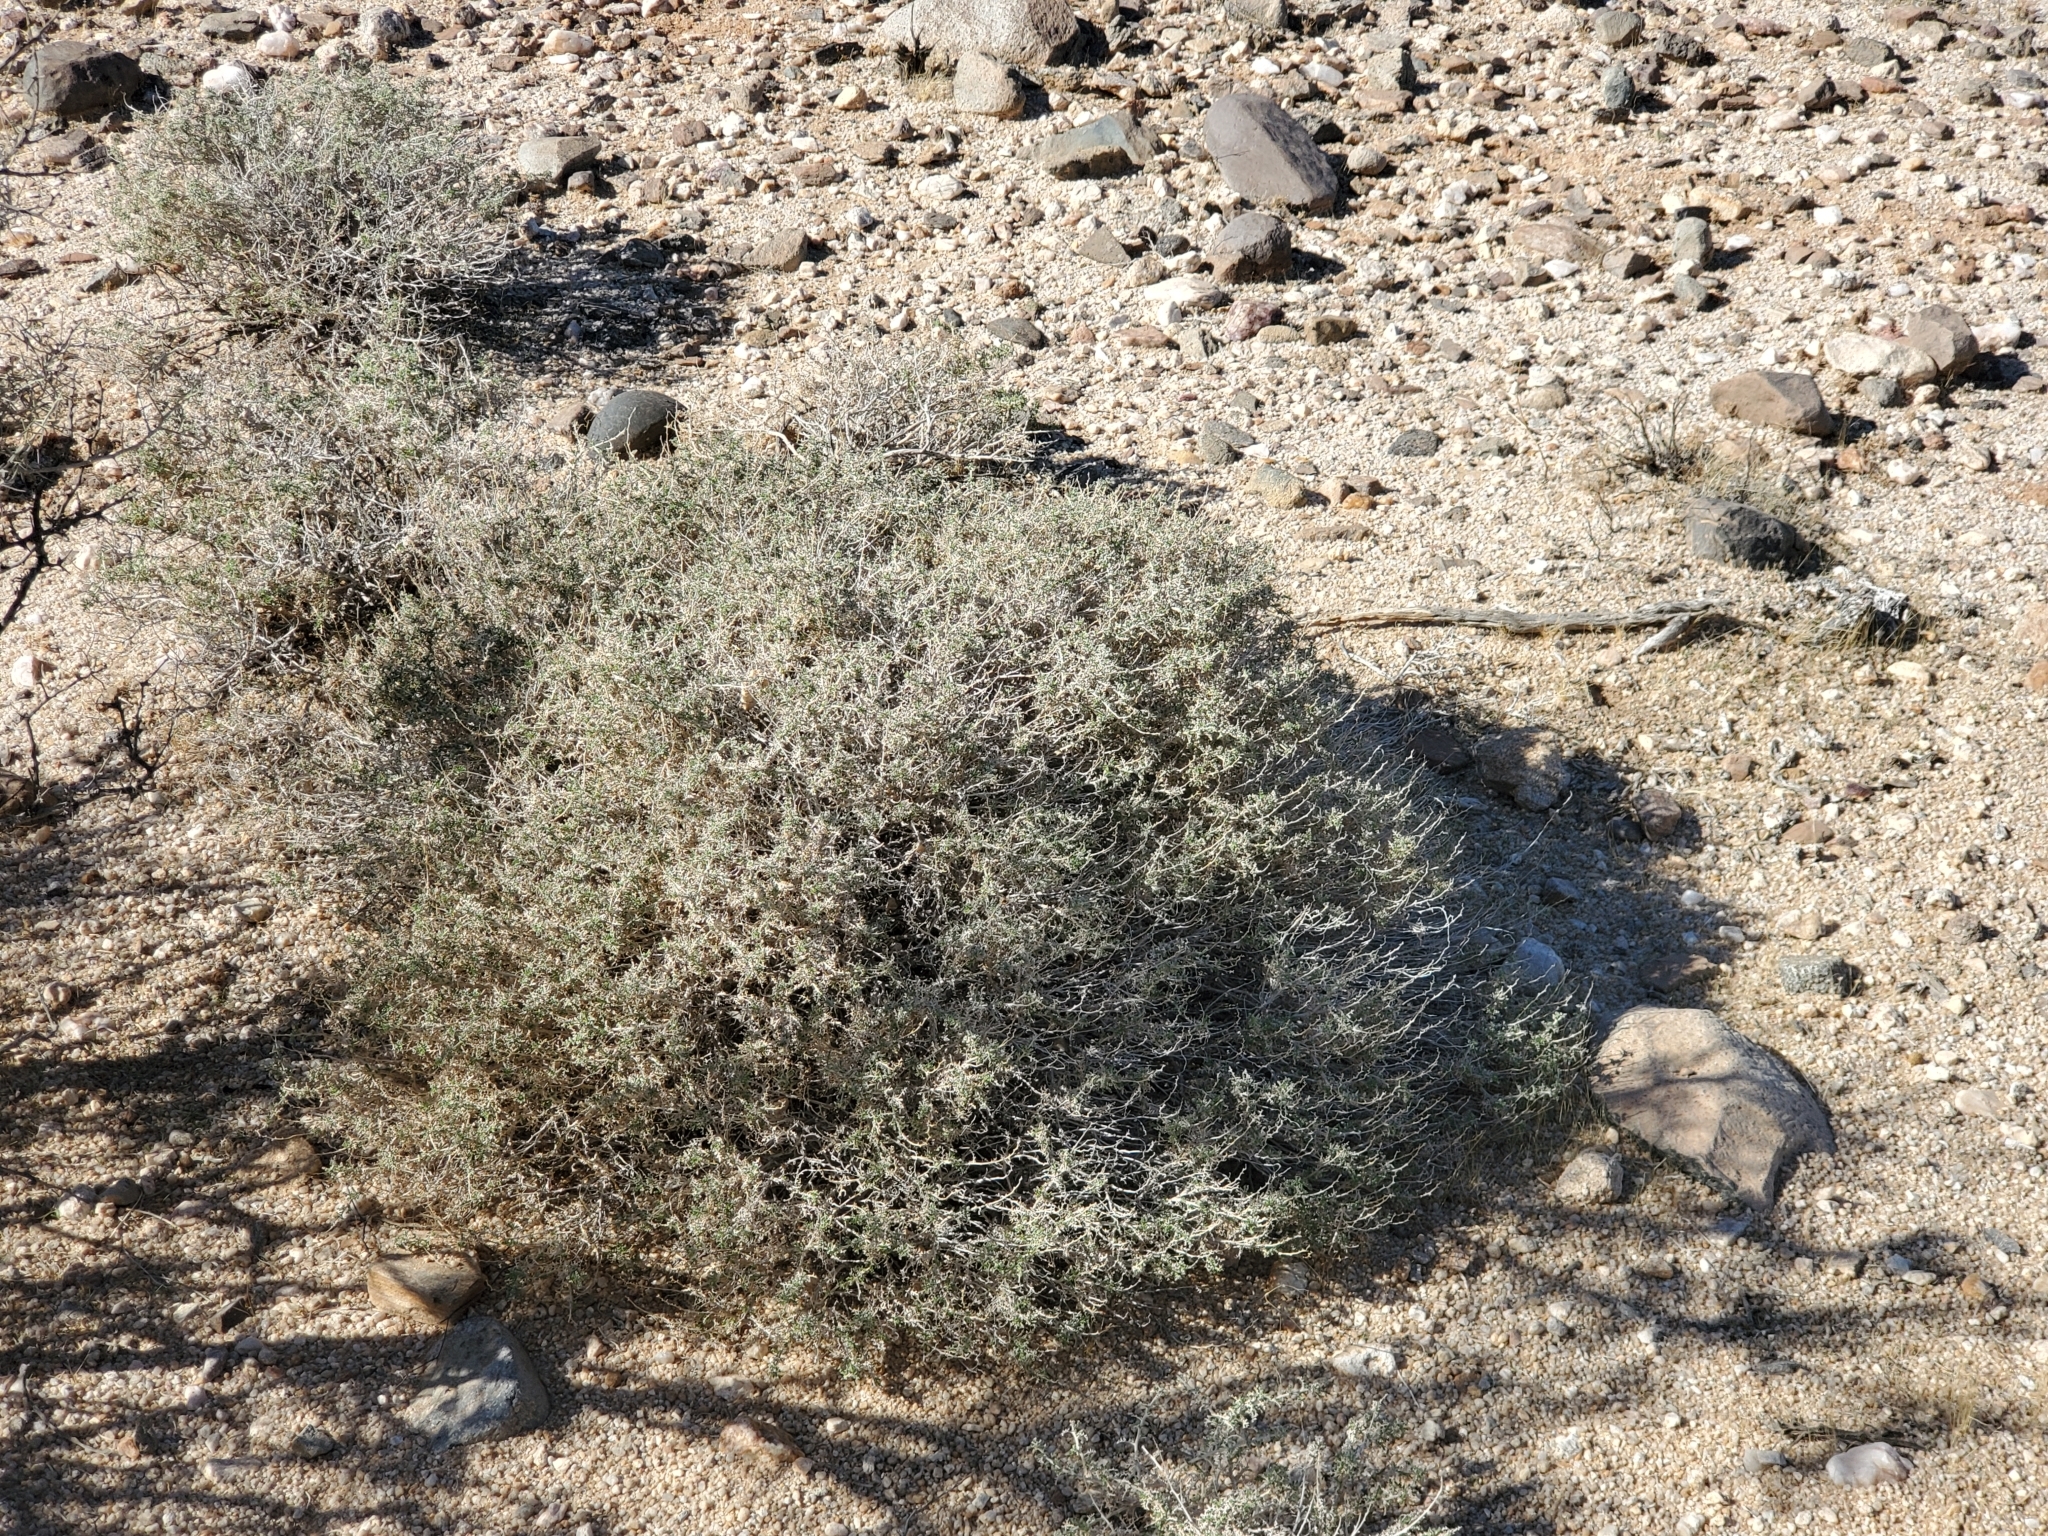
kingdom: Plantae
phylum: Tracheophyta
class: Magnoliopsida
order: Asterales
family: Asteraceae
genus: Ambrosia
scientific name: Ambrosia dumosa
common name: Bur-sage
